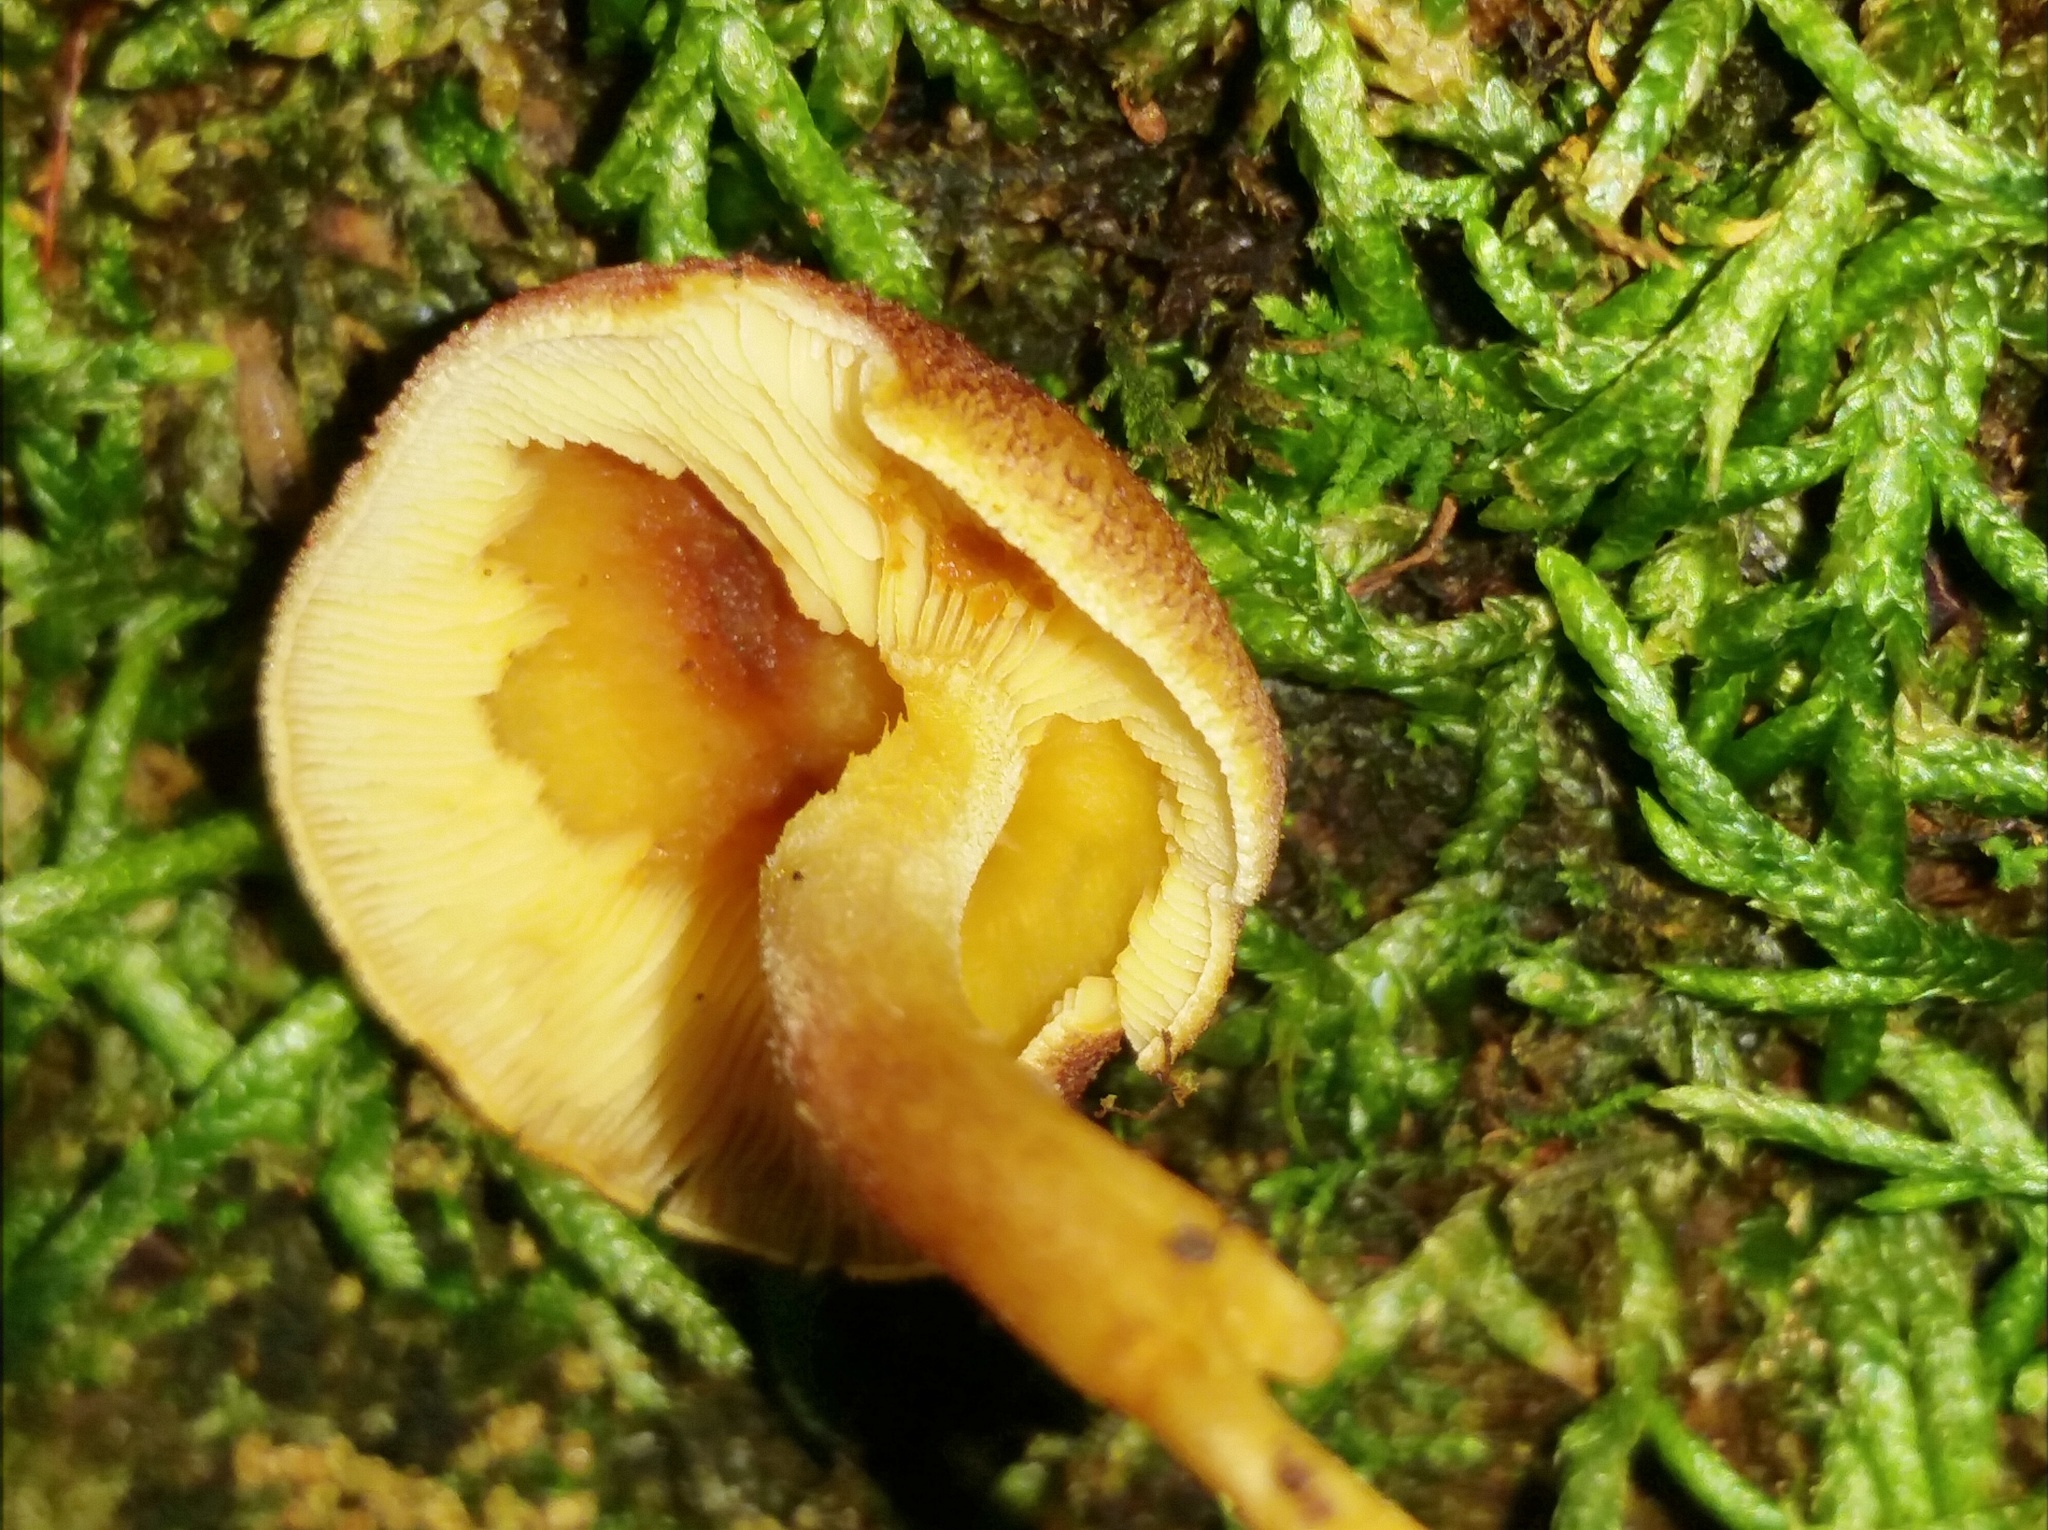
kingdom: Fungi
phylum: Basidiomycota
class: Agaricomycetes
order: Agaricales
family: Tricholomataceae
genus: Tricholomopsis
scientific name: Tricholomopsis flammula
